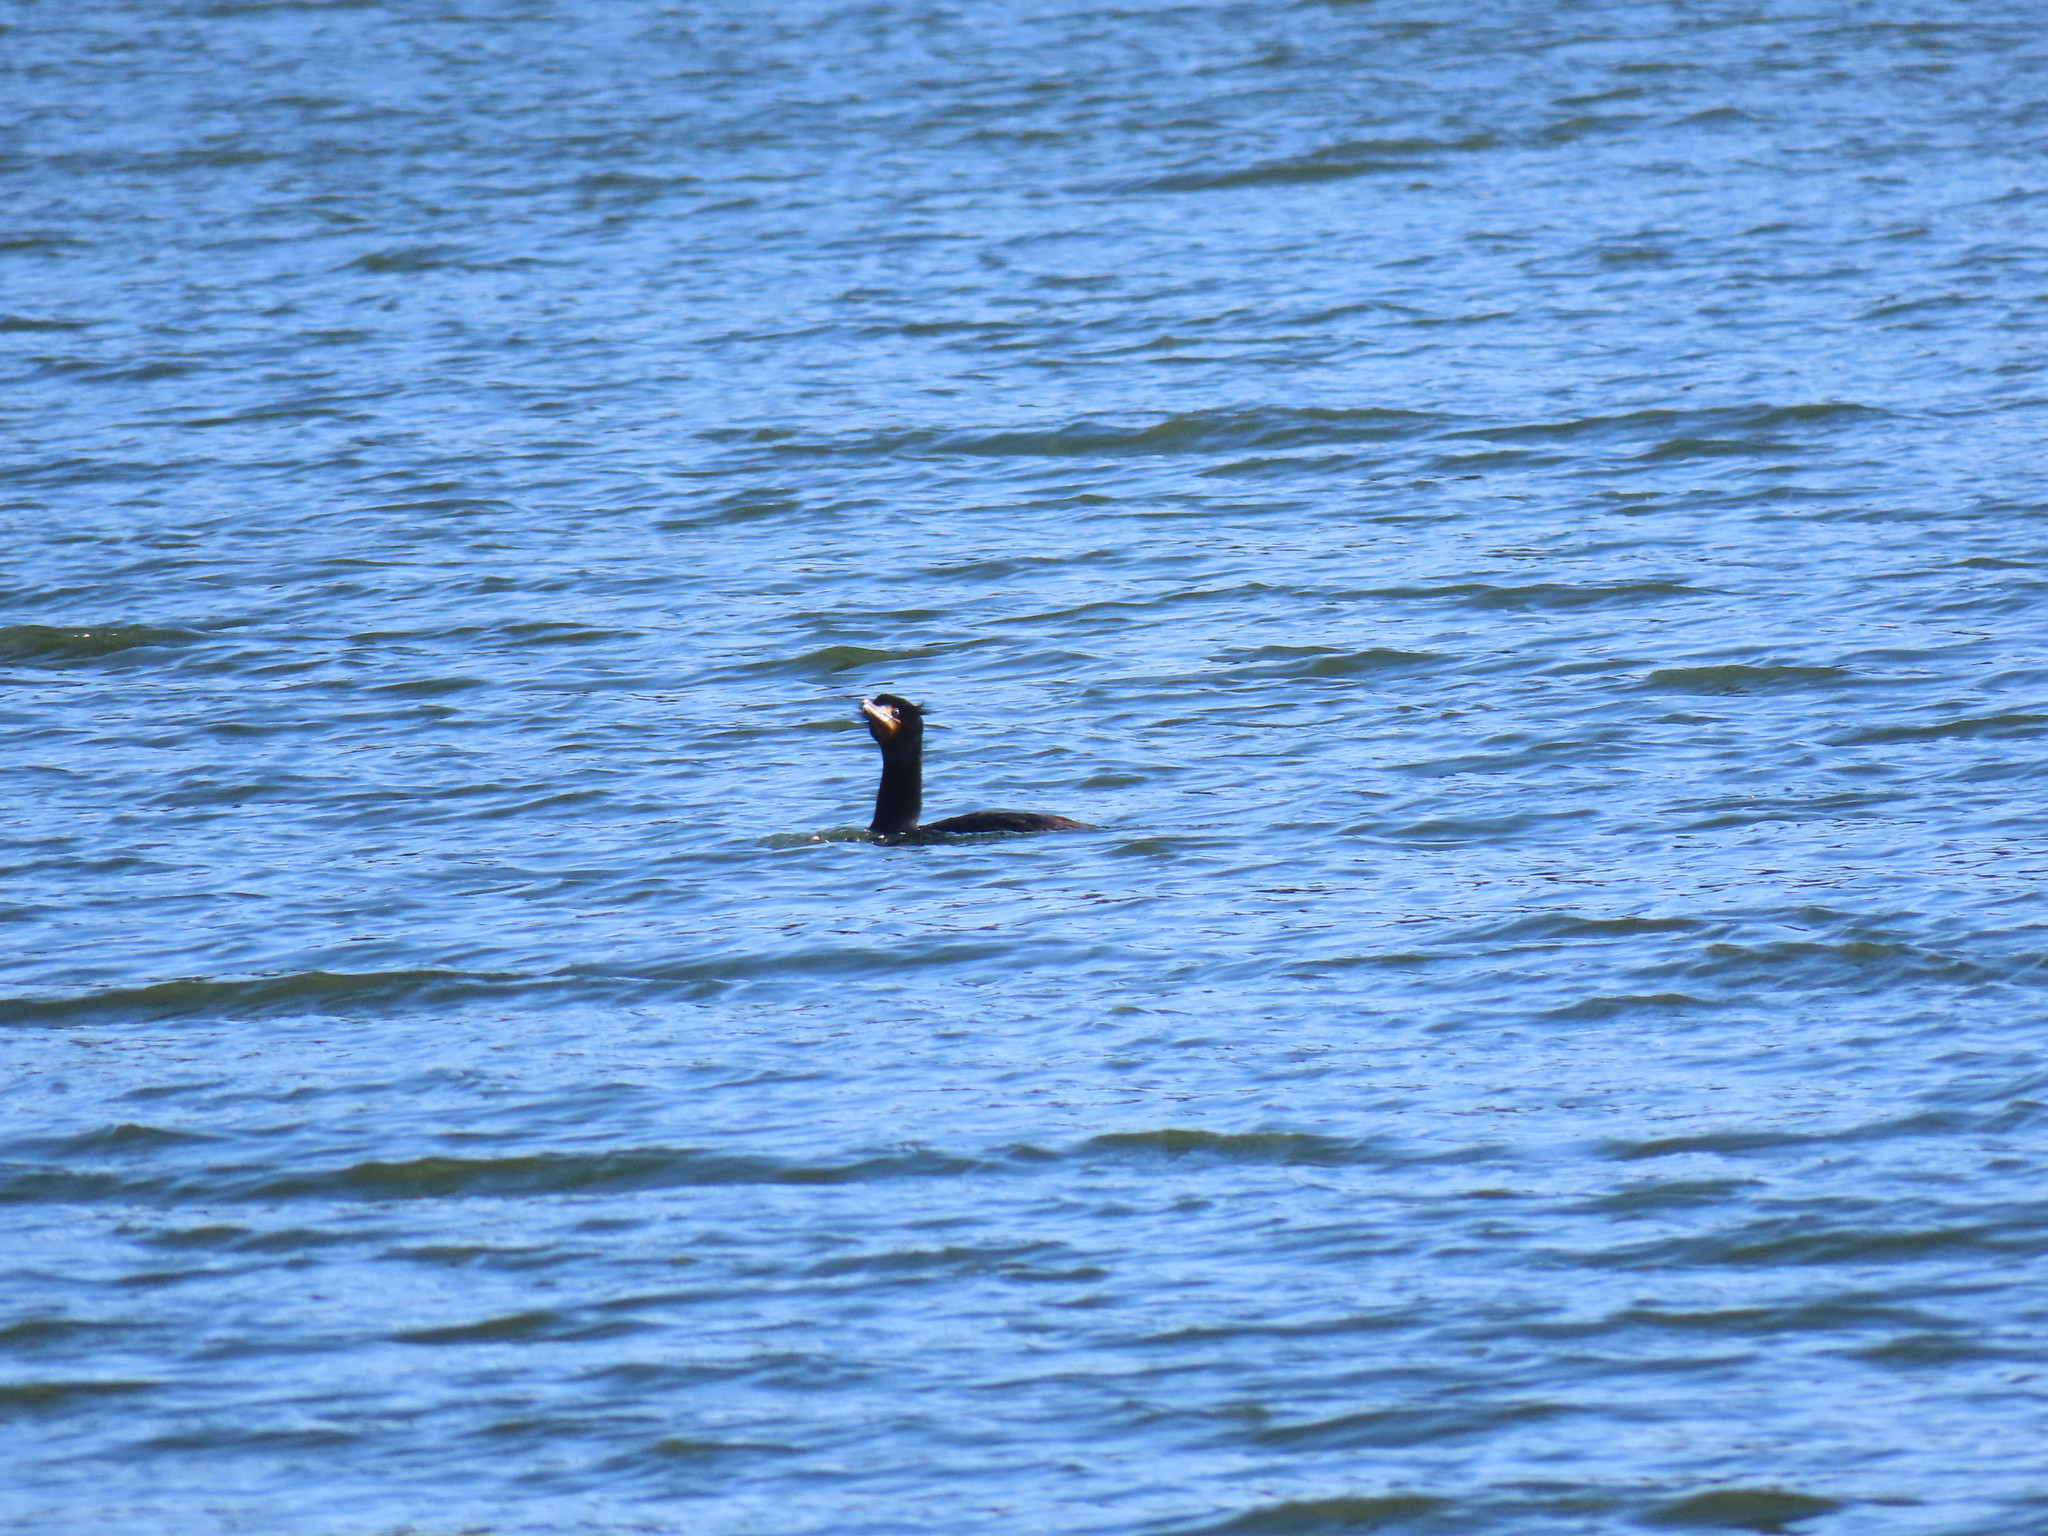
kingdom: Animalia
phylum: Chordata
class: Aves
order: Suliformes
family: Phalacrocoracidae
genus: Phalacrocorax
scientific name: Phalacrocorax auritus
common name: Double-crested cormorant
